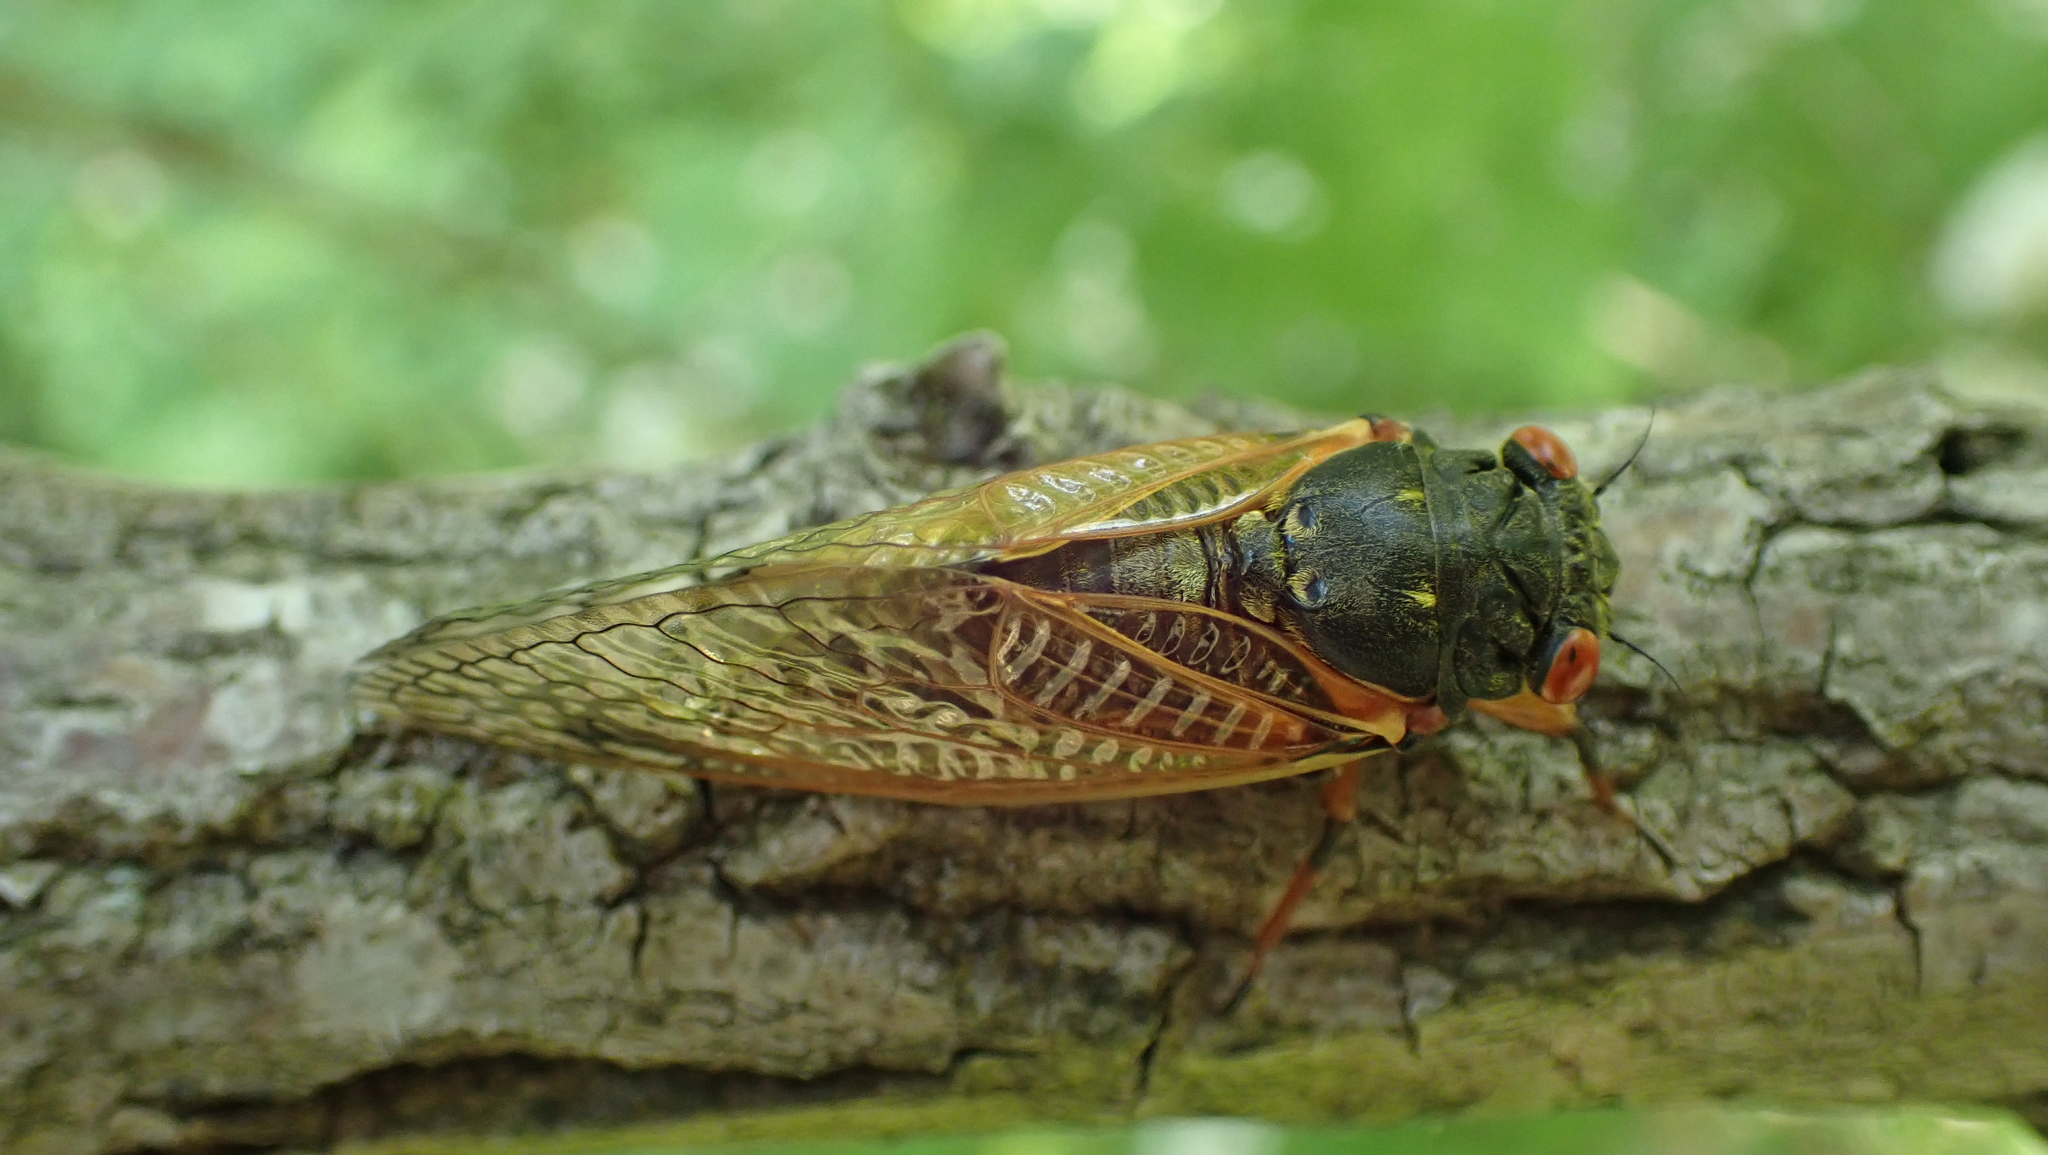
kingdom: Animalia
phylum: Arthropoda
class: Insecta
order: Hemiptera
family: Cicadidae
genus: Magicicada
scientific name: Magicicada
